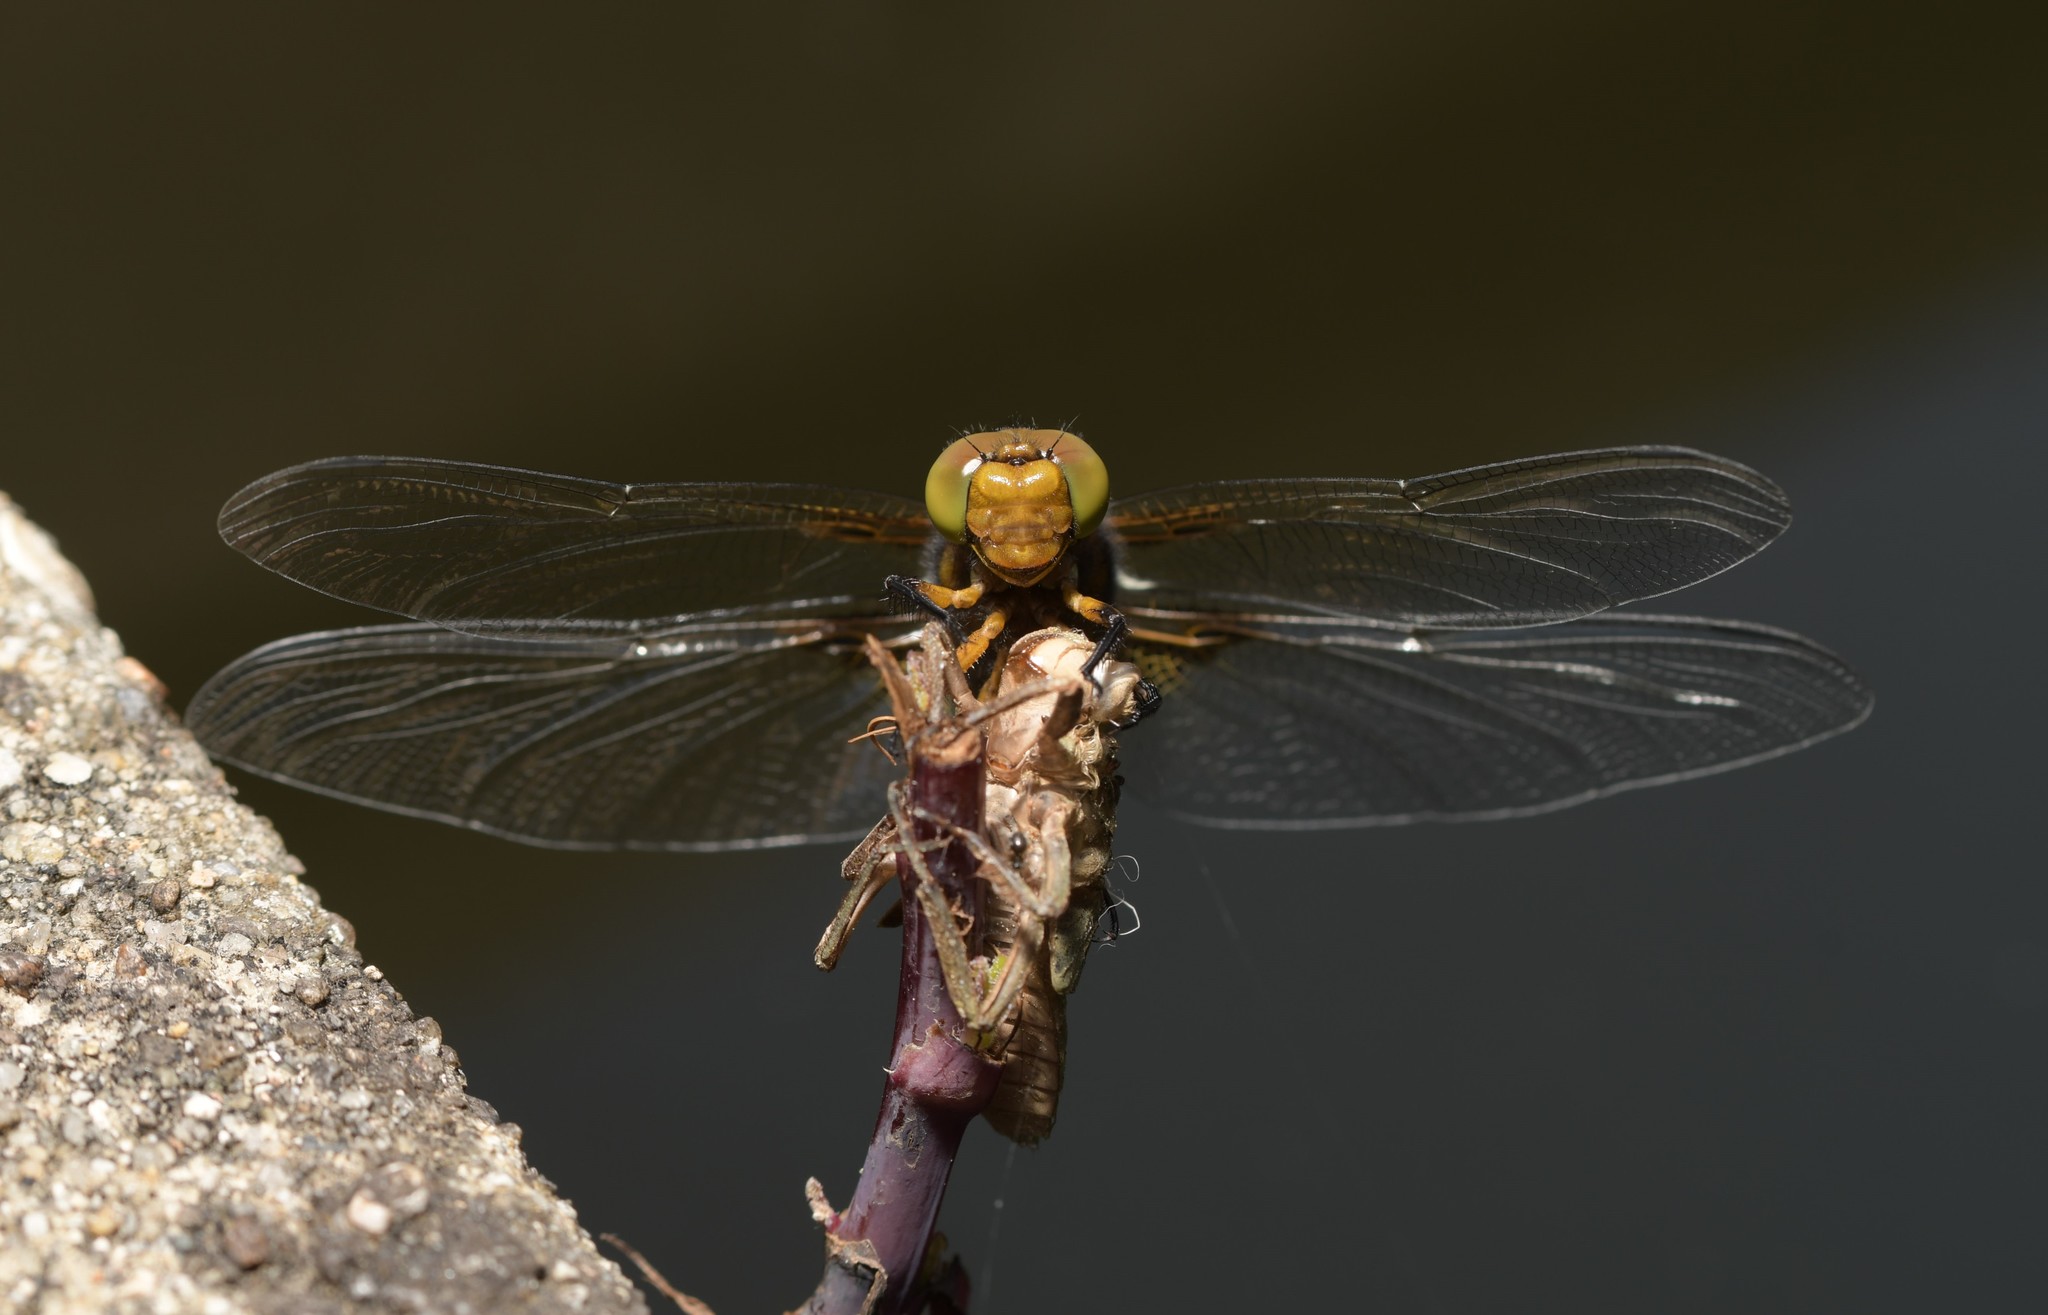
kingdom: Animalia
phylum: Arthropoda
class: Insecta
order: Odonata
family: Libellulidae
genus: Libellula
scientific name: Libellula depressa
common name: Broad-bodied chaser
